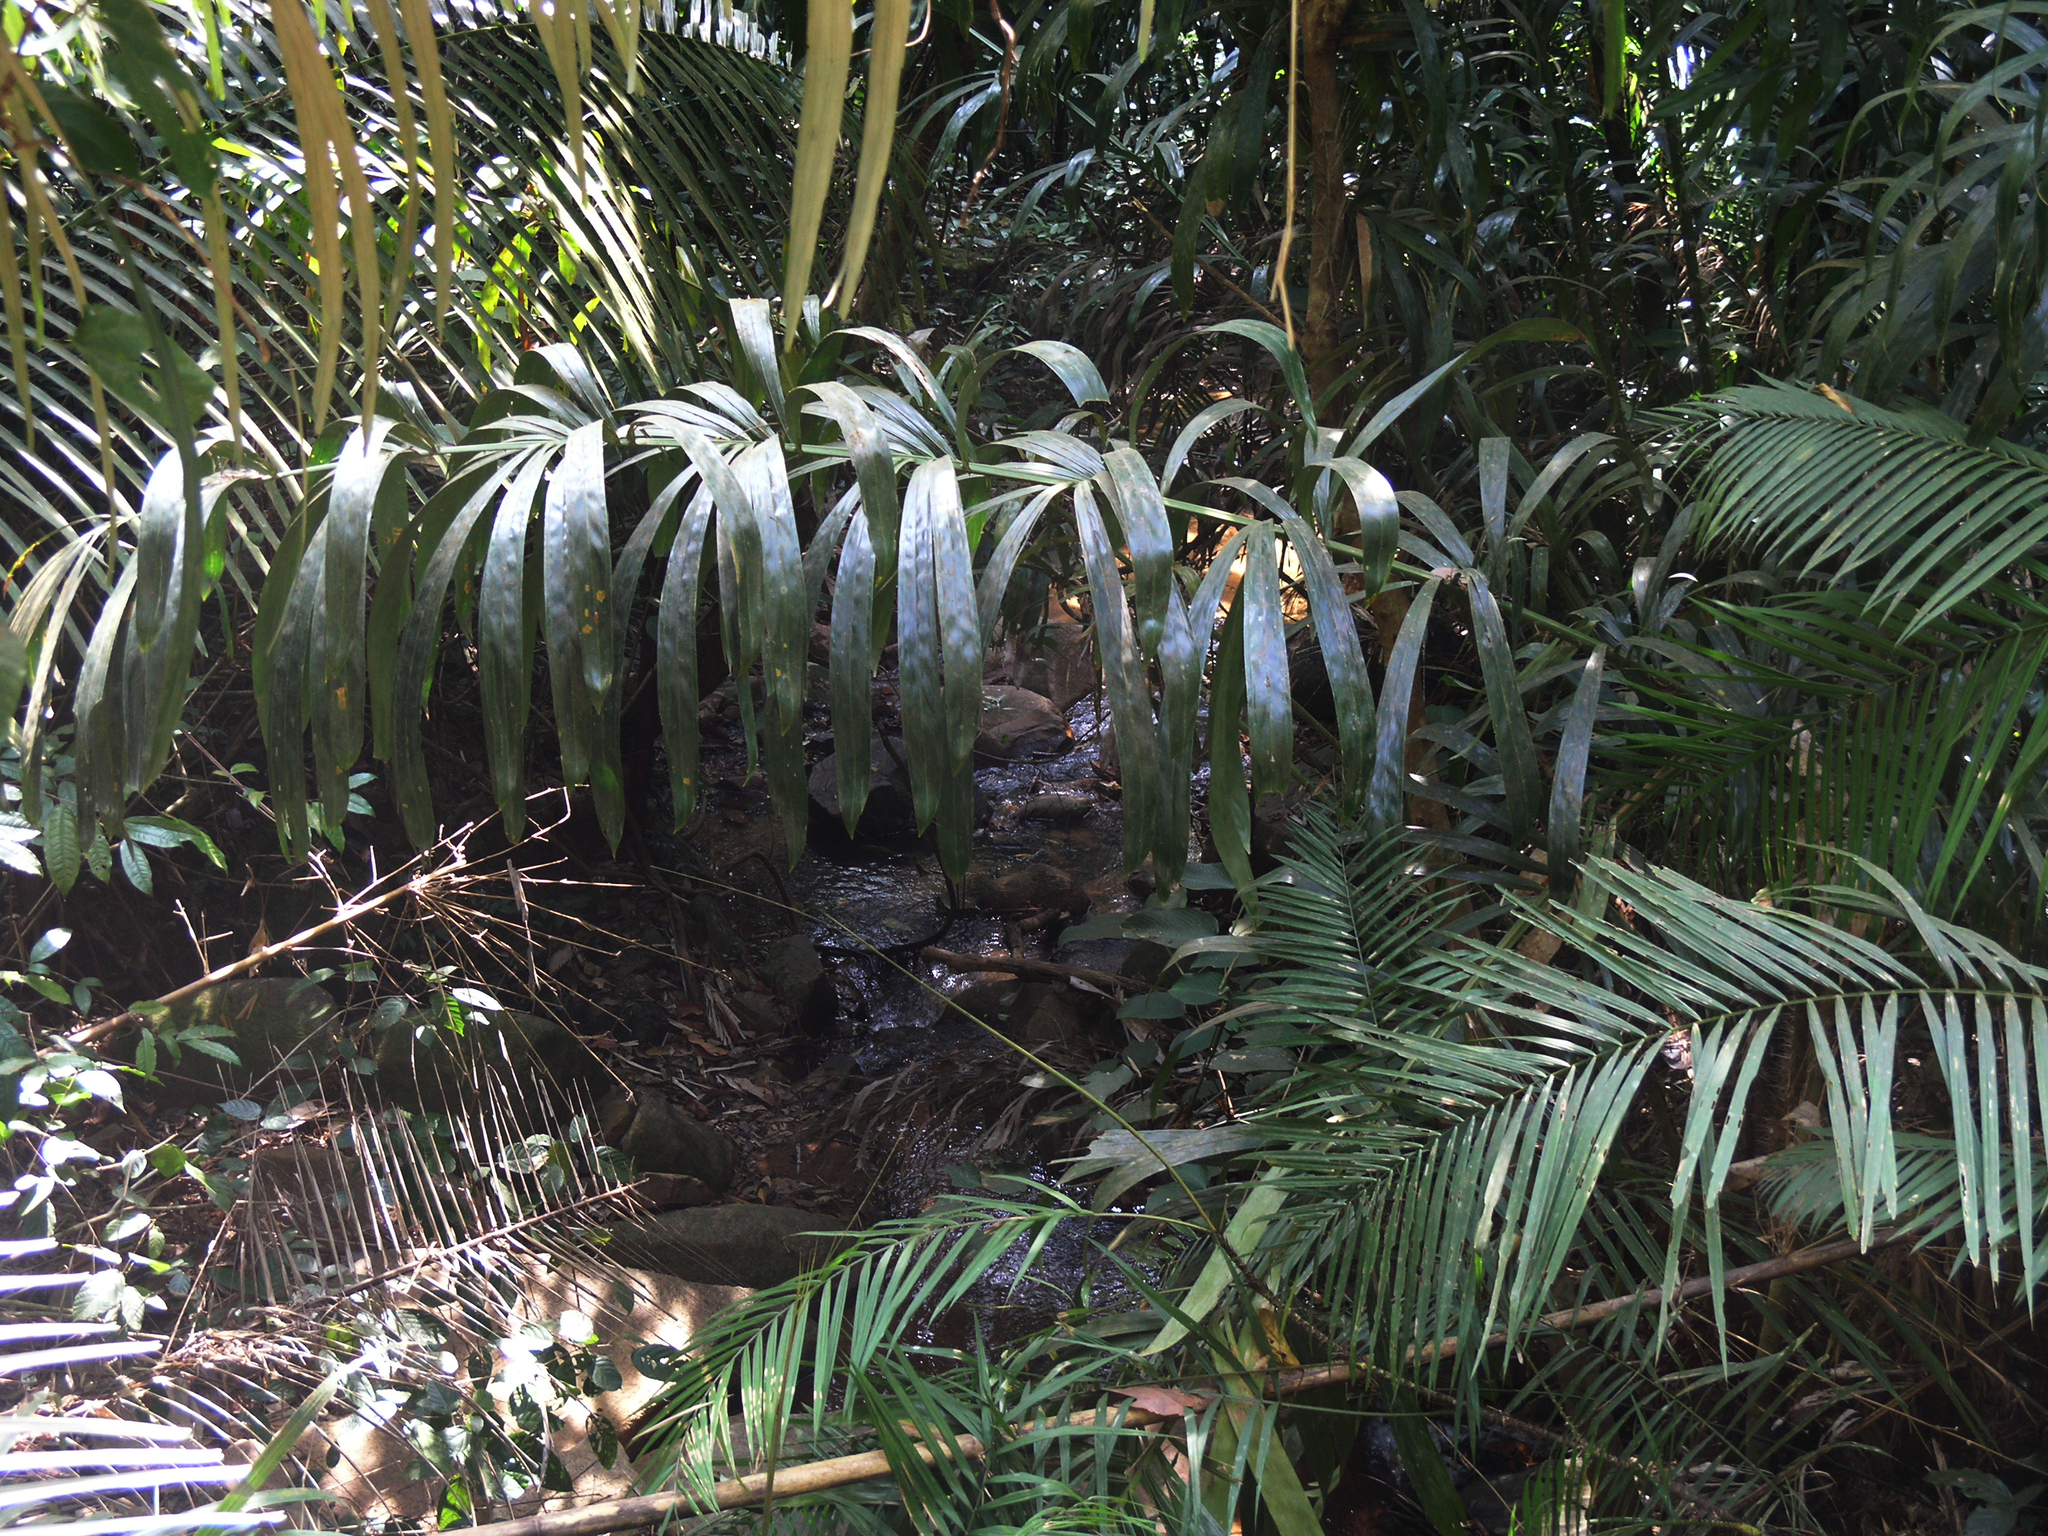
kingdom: Plantae
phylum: Tracheophyta
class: Liliopsida
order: Arecales
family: Arecaceae
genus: Calamus
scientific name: Calamus viminalis
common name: Osier-like rattan palm
